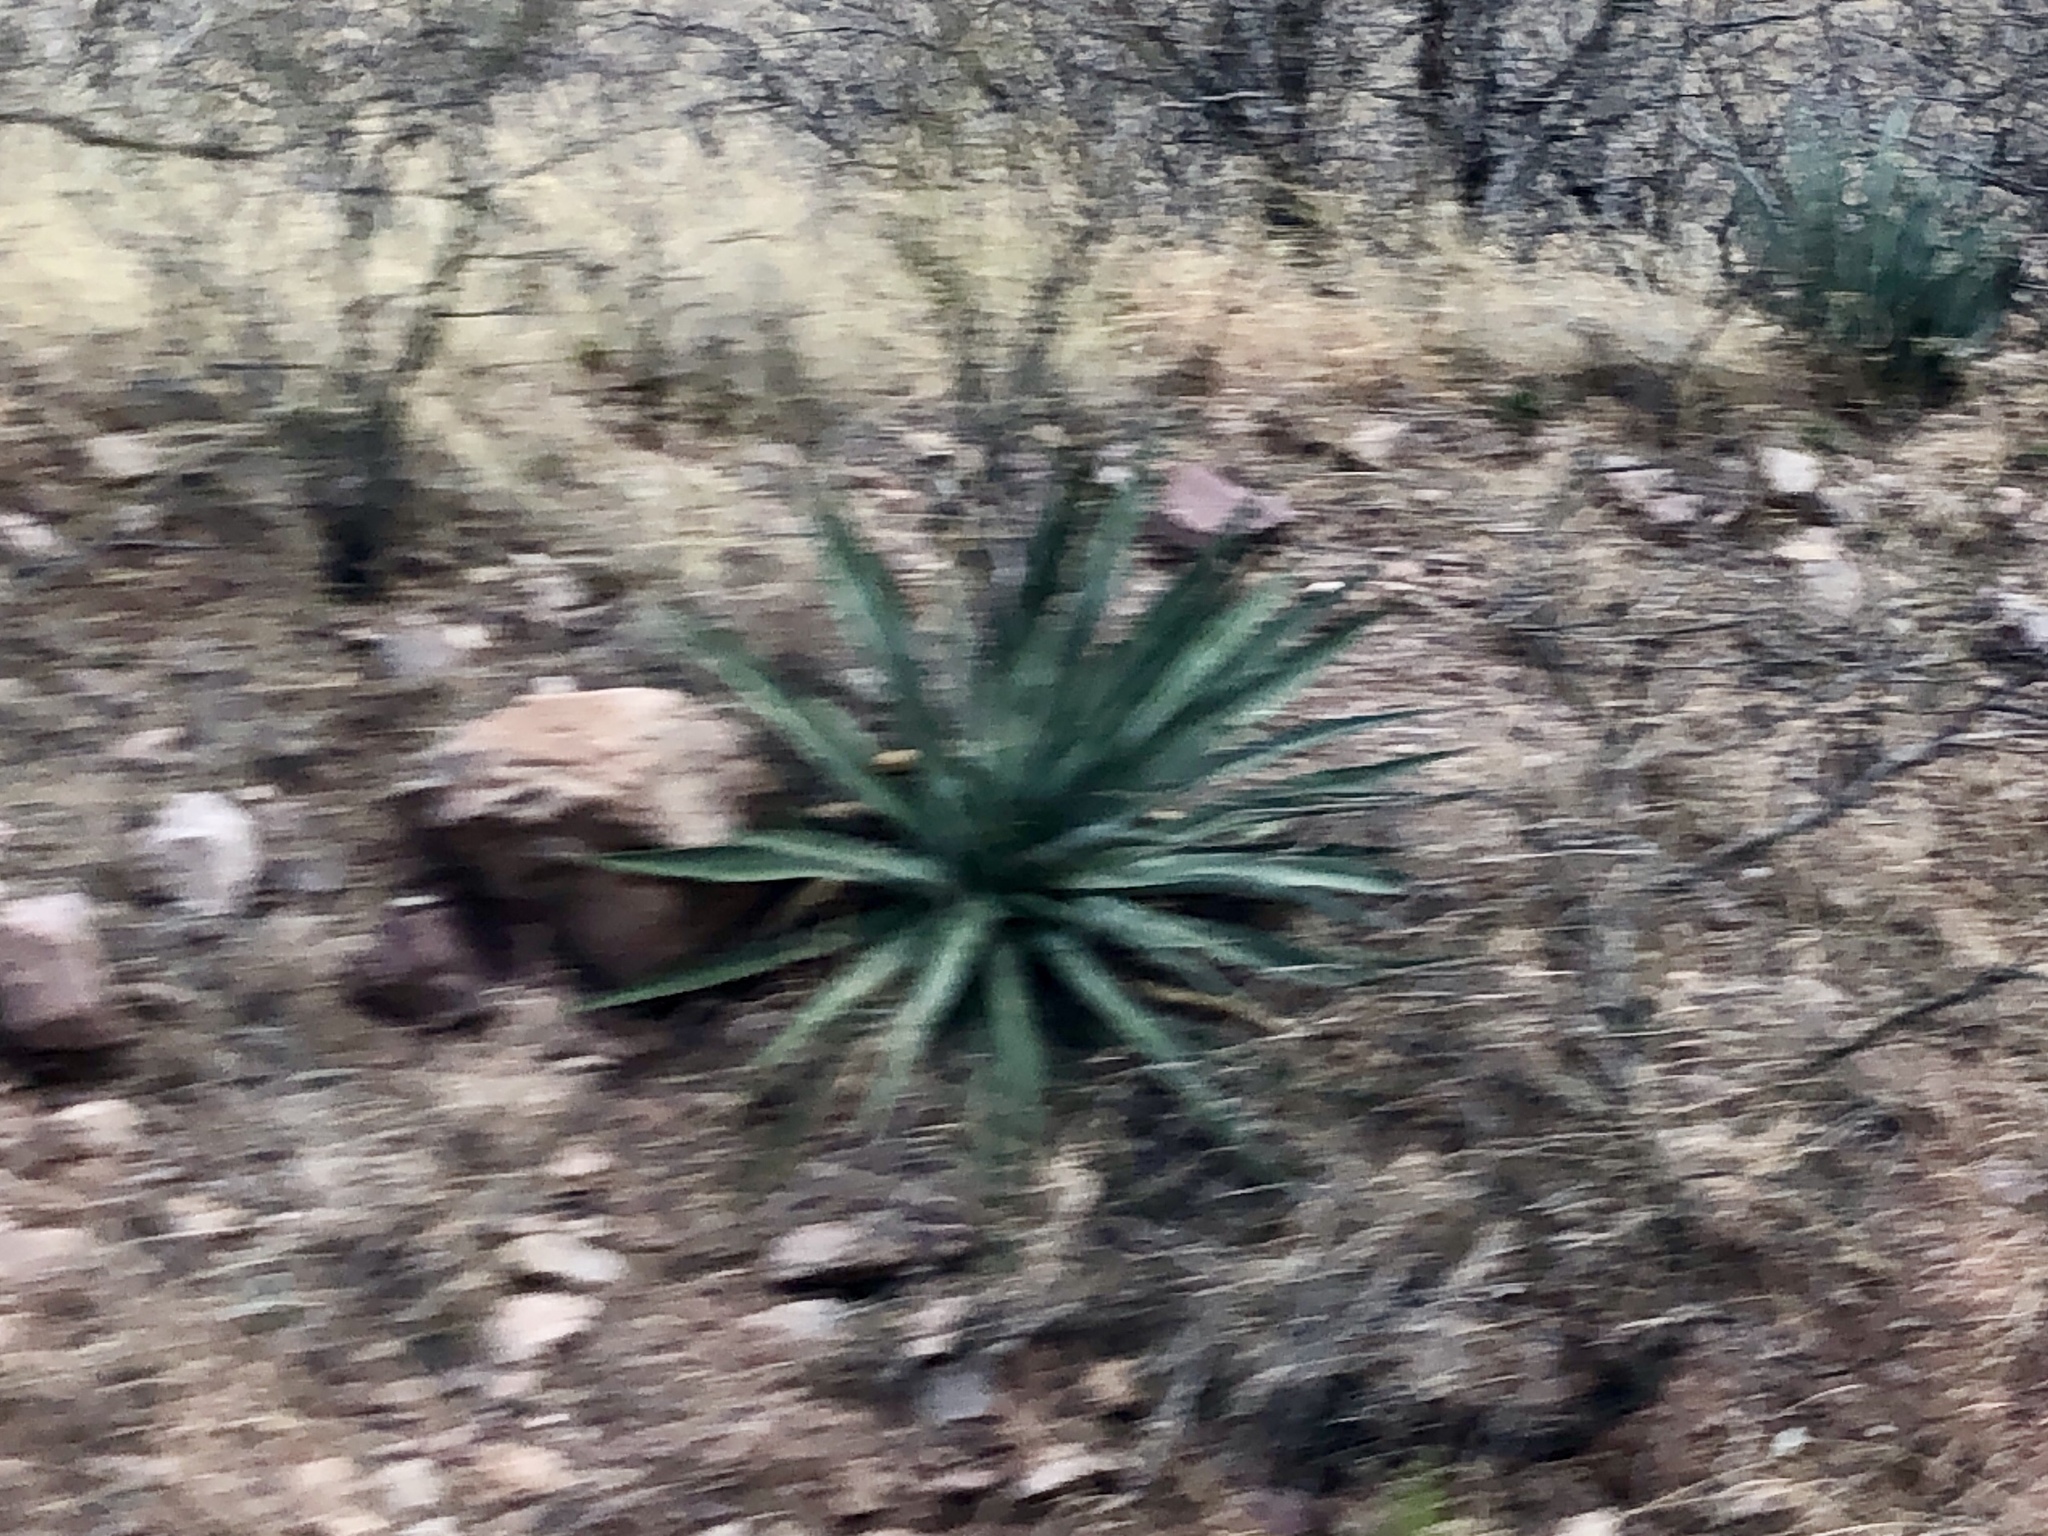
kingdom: Plantae
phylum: Tracheophyta
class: Liliopsida
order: Asparagales
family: Asparagaceae
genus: Agave
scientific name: Agave palmeri
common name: Palmer agave
